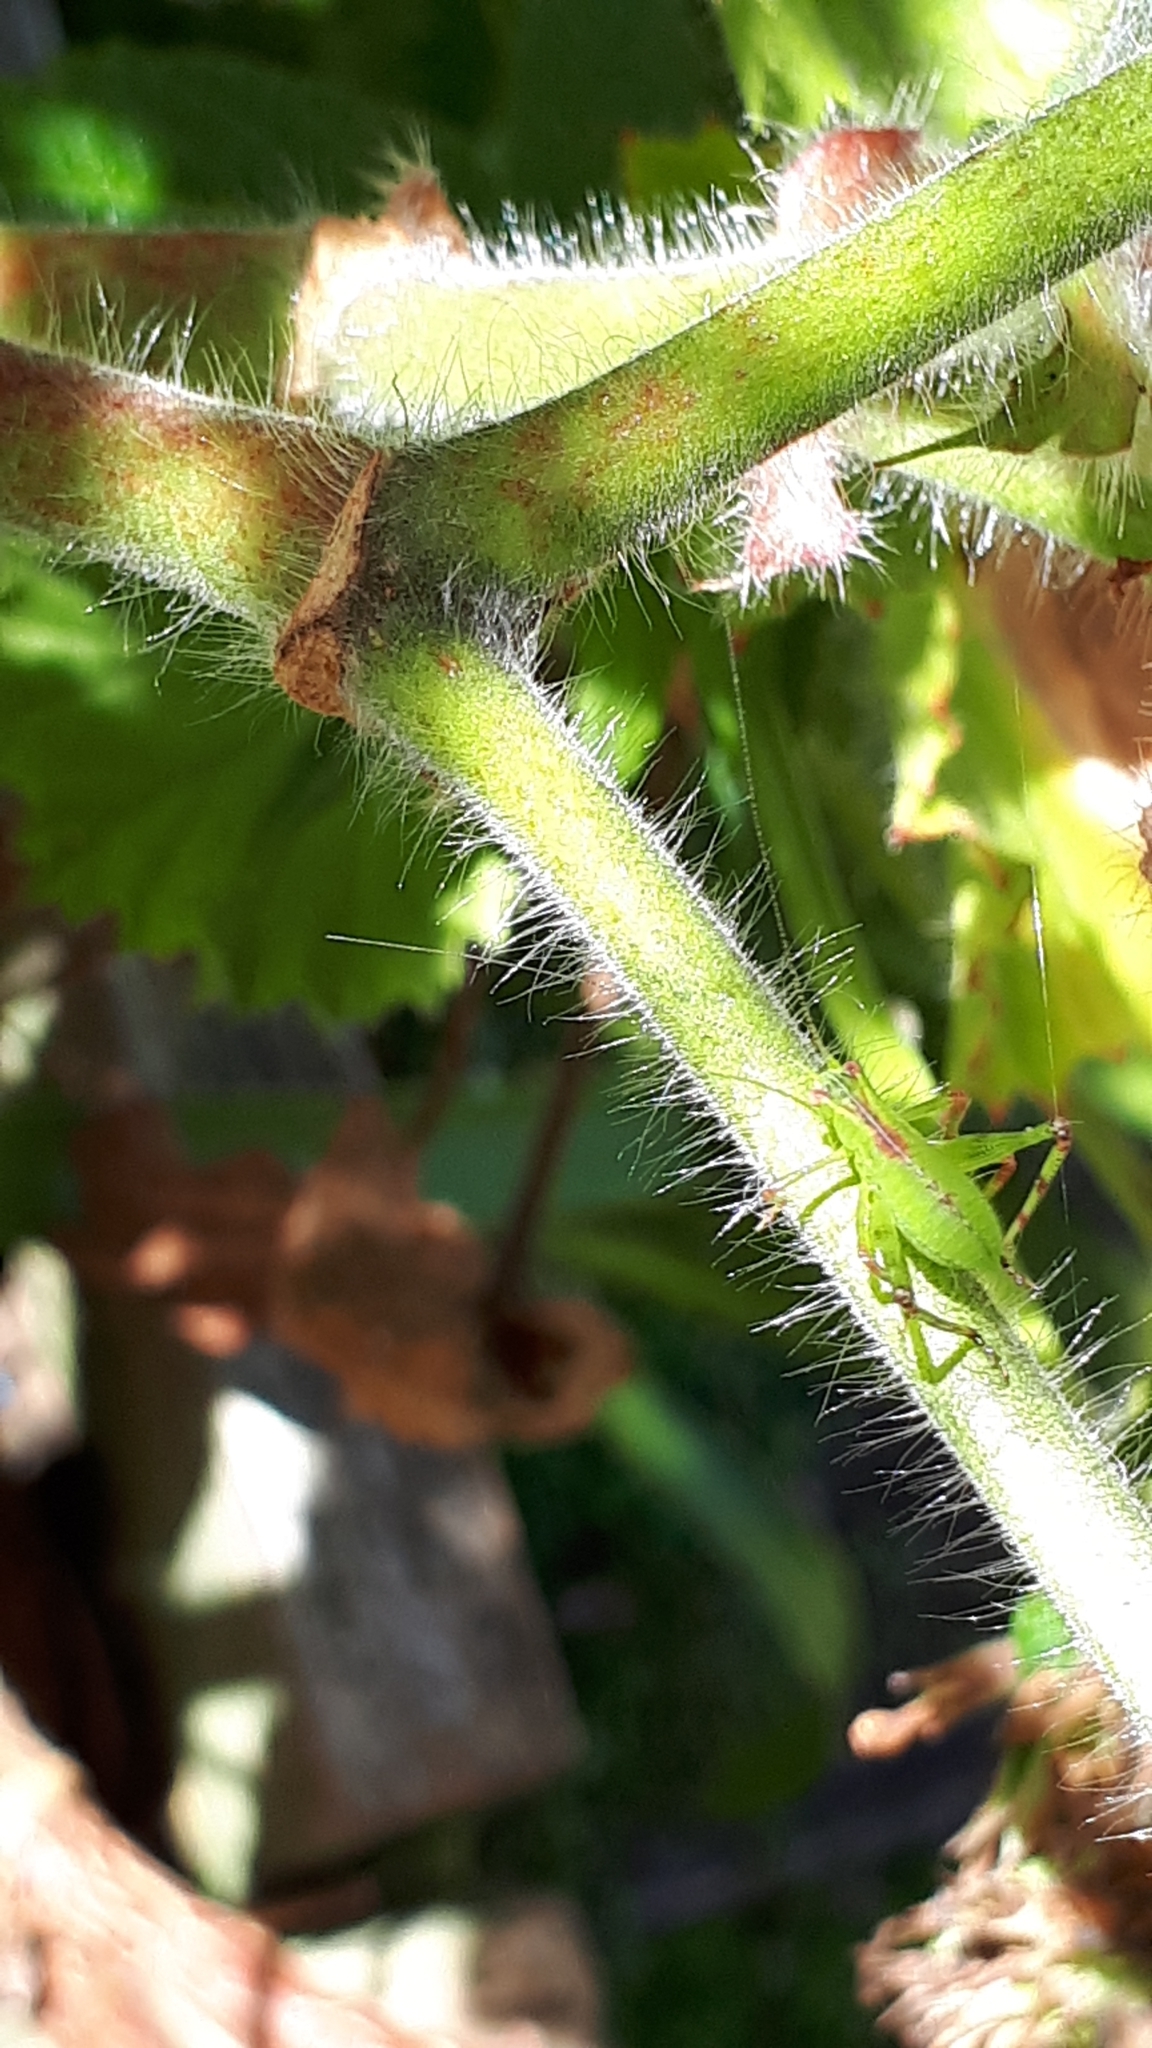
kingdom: Animalia
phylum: Arthropoda
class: Insecta
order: Orthoptera
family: Tettigoniidae
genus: Caedicia
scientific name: Caedicia simplex
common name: Common garden katydid
